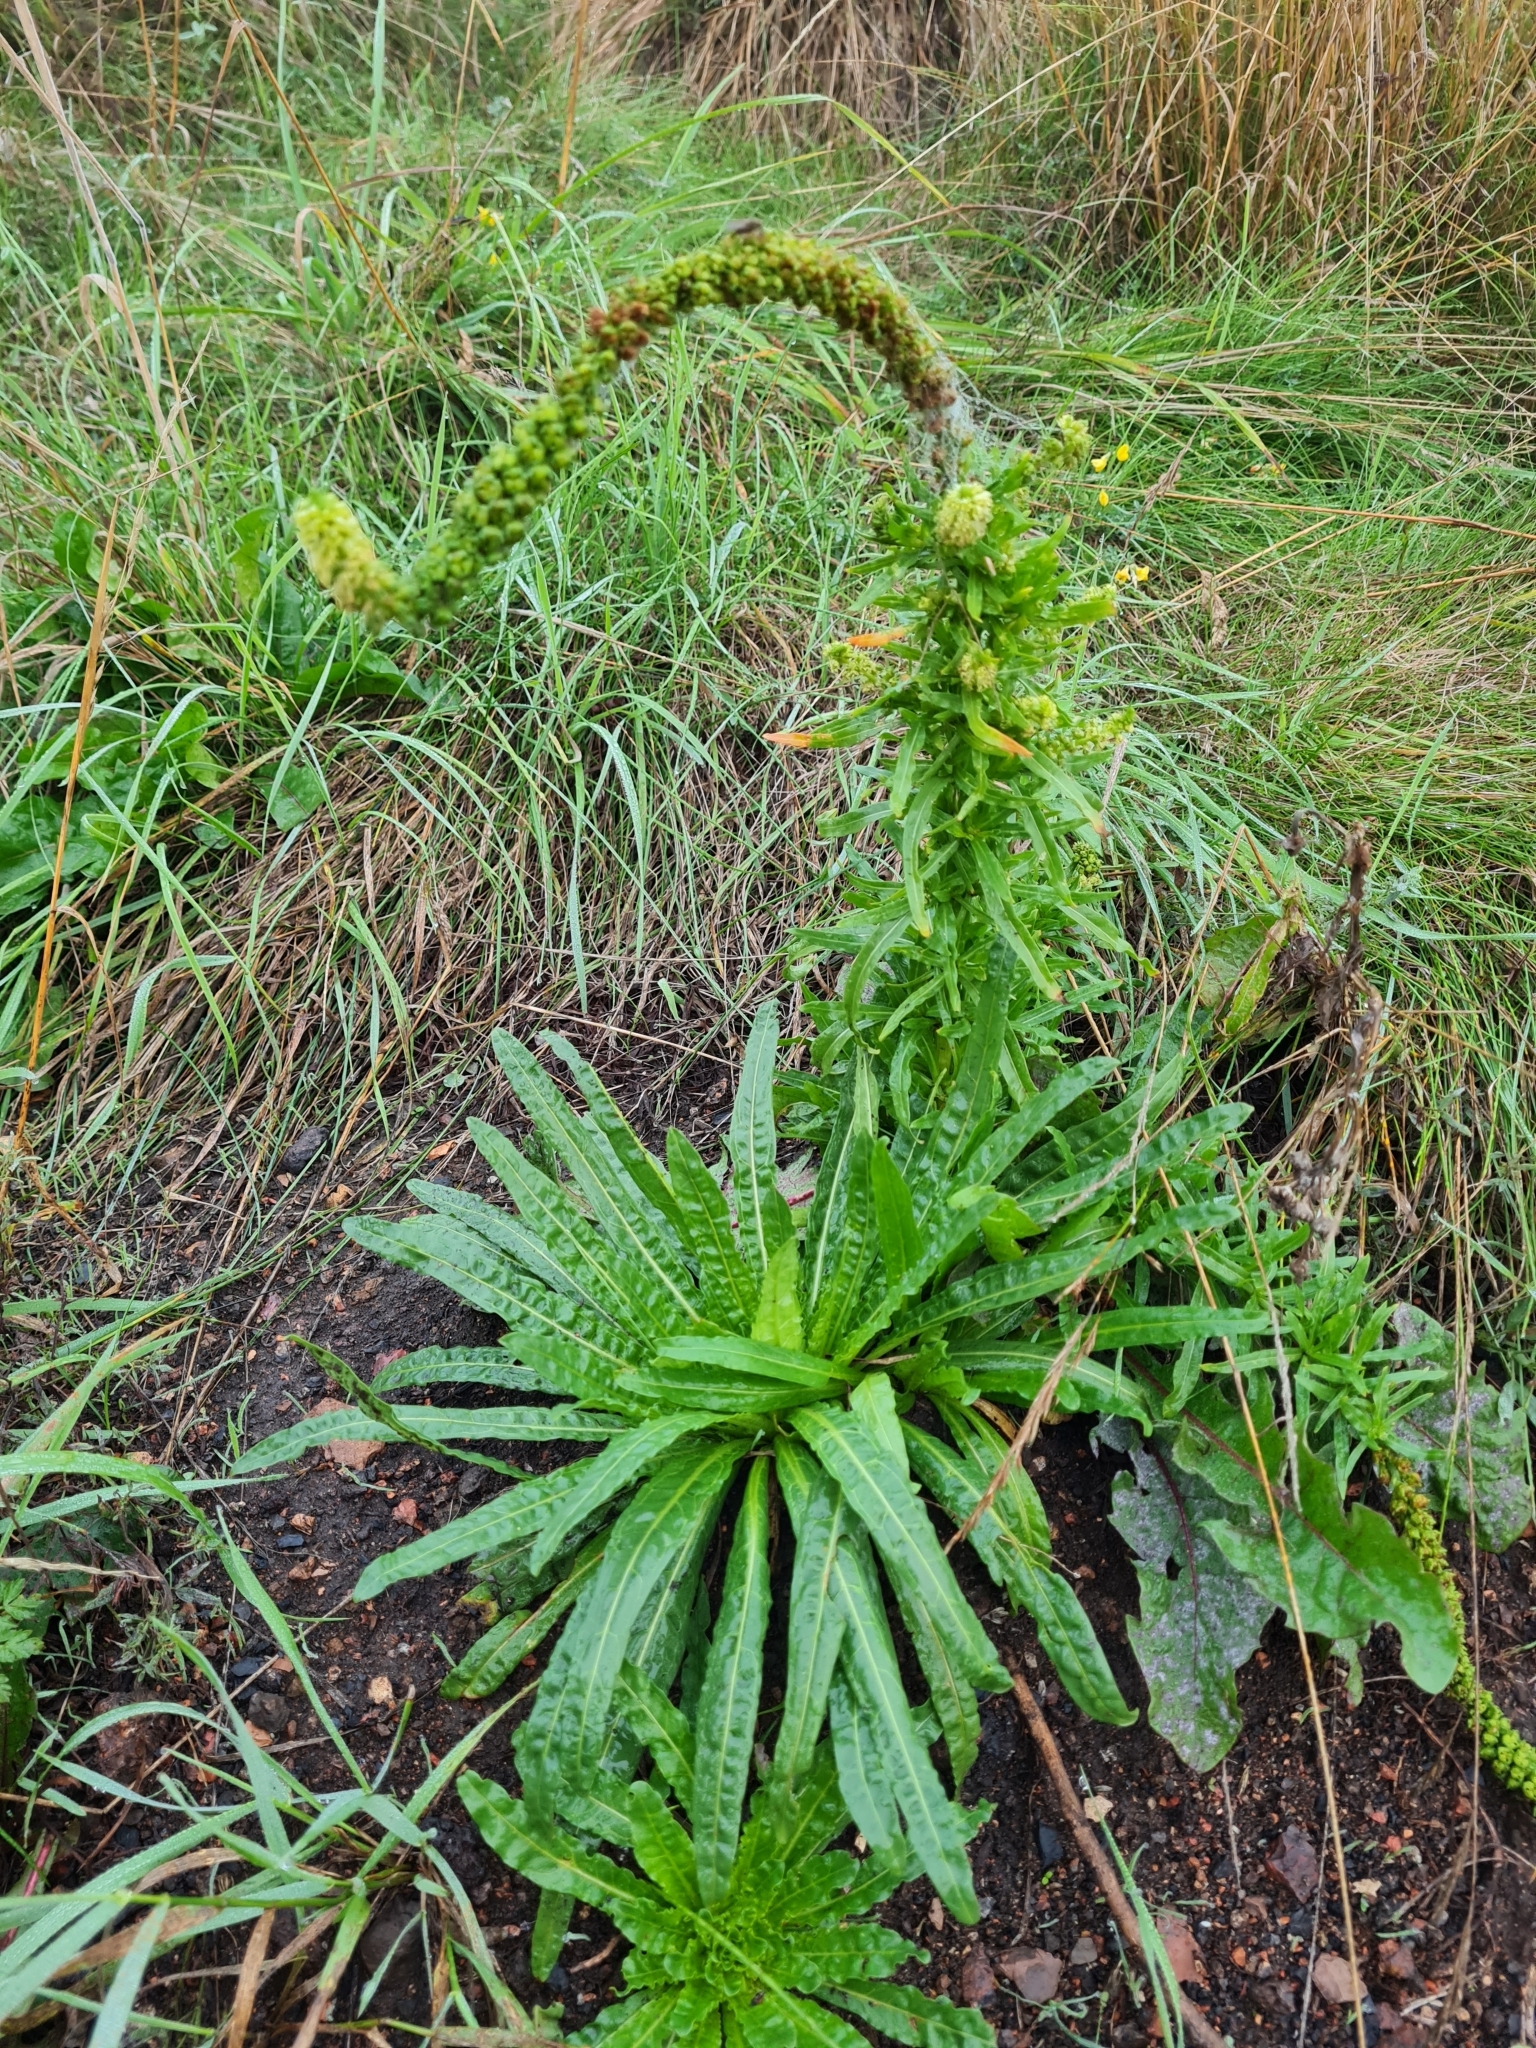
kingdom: Plantae
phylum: Tracheophyta
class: Magnoliopsida
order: Brassicales
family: Resedaceae
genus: Reseda
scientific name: Reseda luteola
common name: Weld
